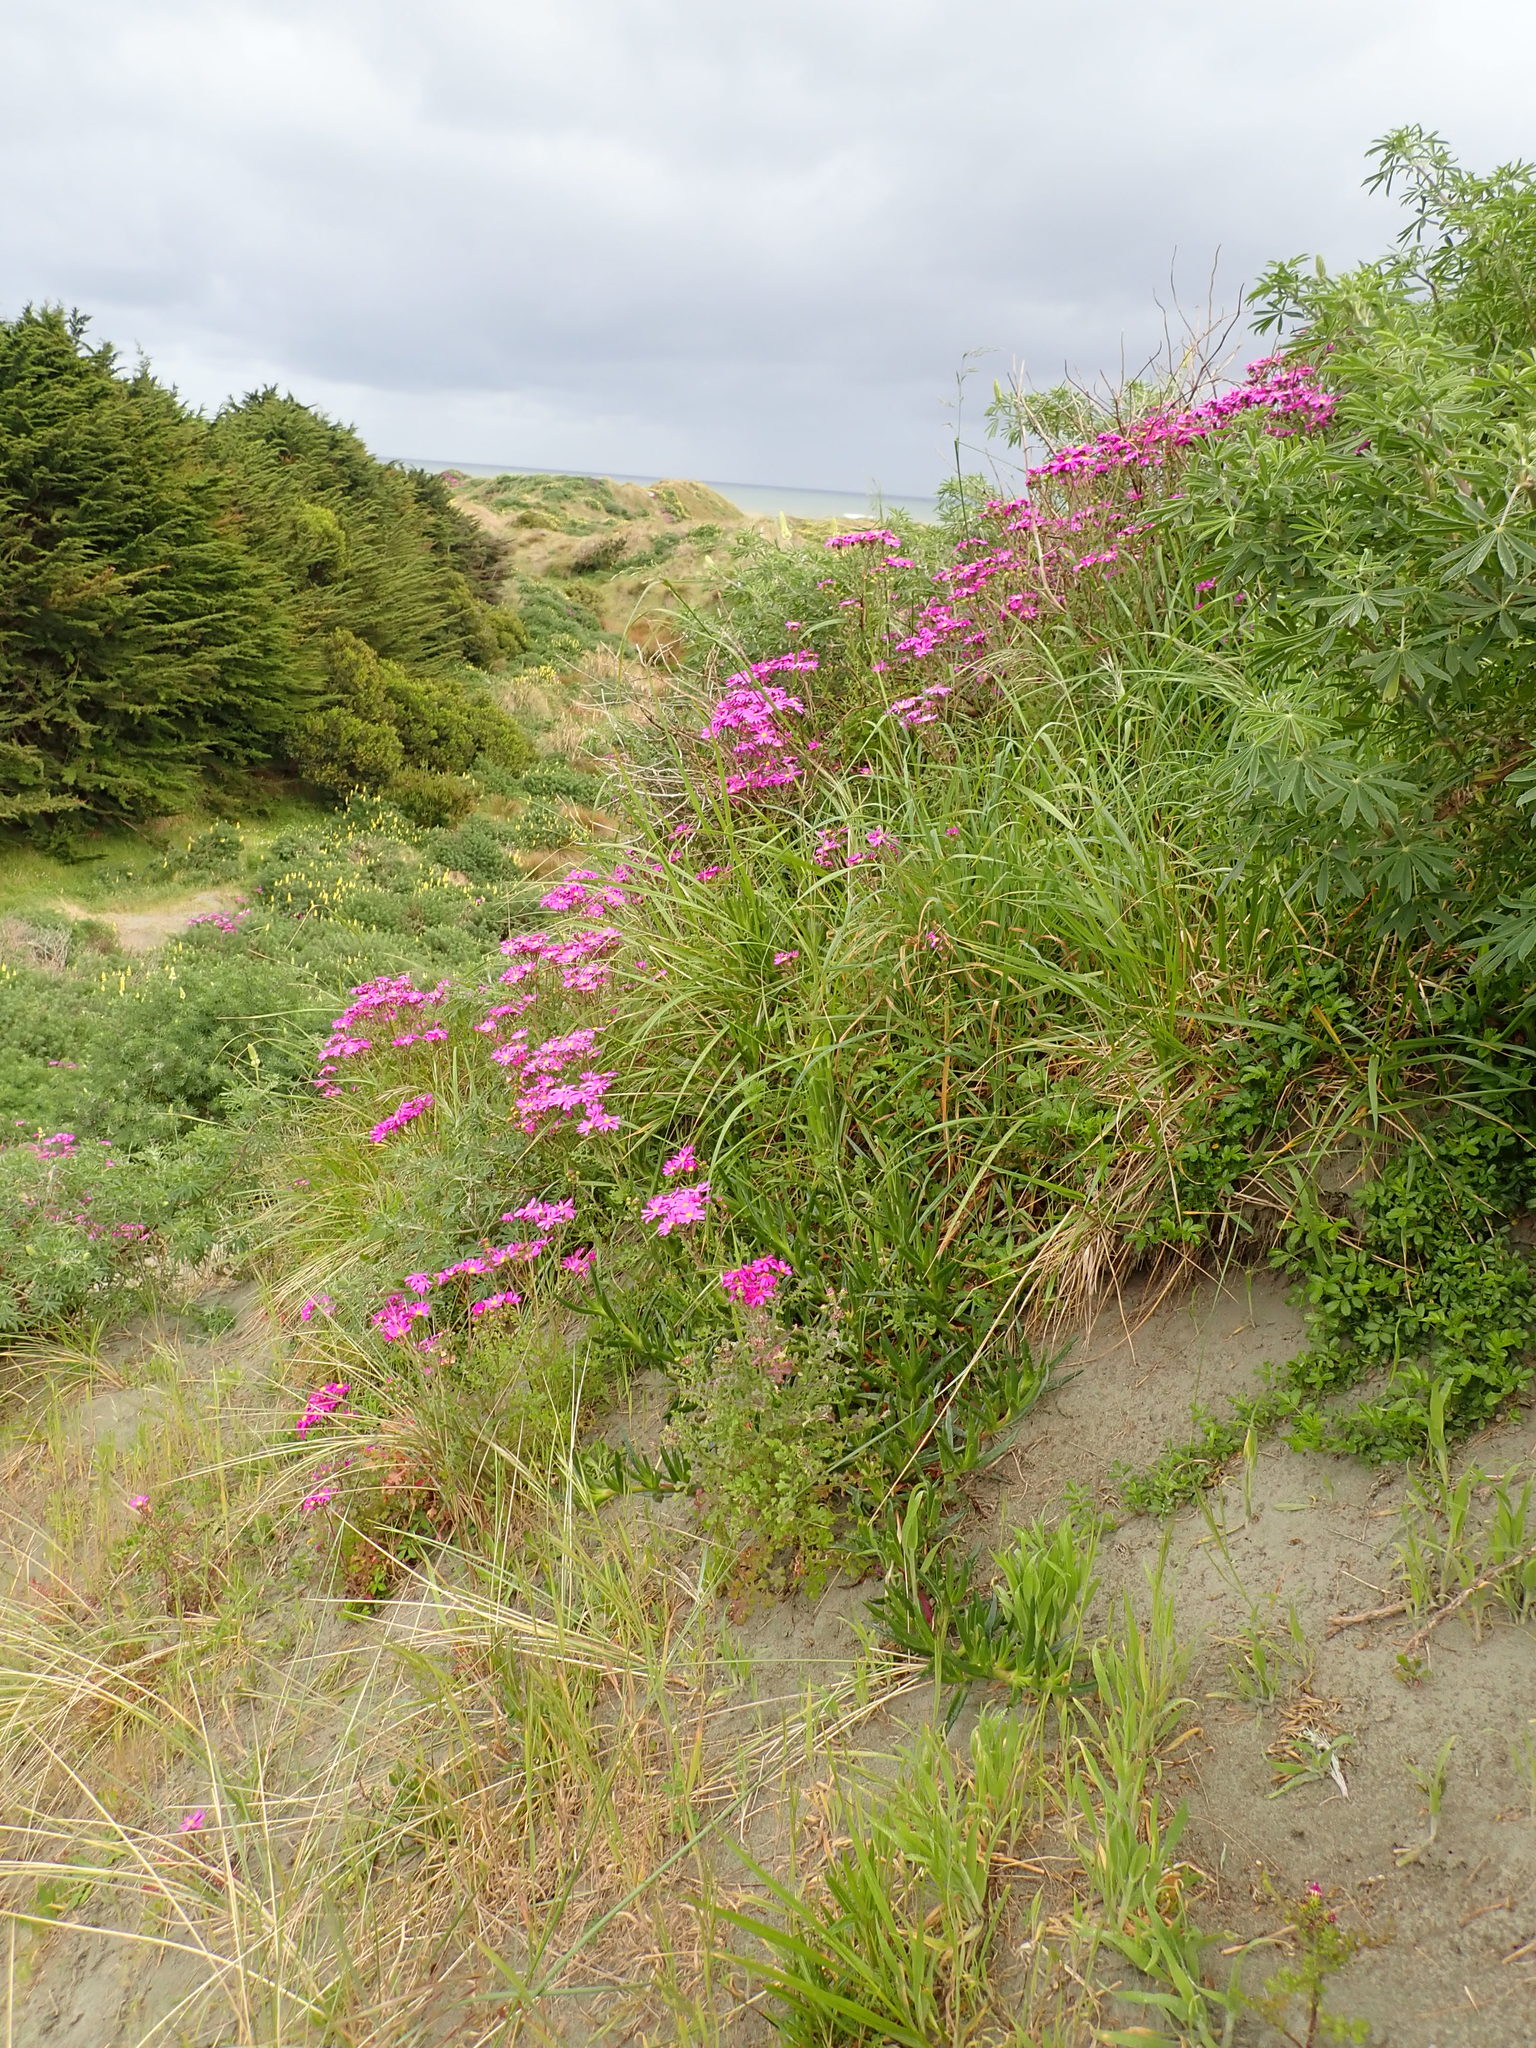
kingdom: Plantae
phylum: Tracheophyta
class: Magnoliopsida
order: Asterales
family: Asteraceae
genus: Senecio
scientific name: Senecio elegans
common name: Purple groundsel
